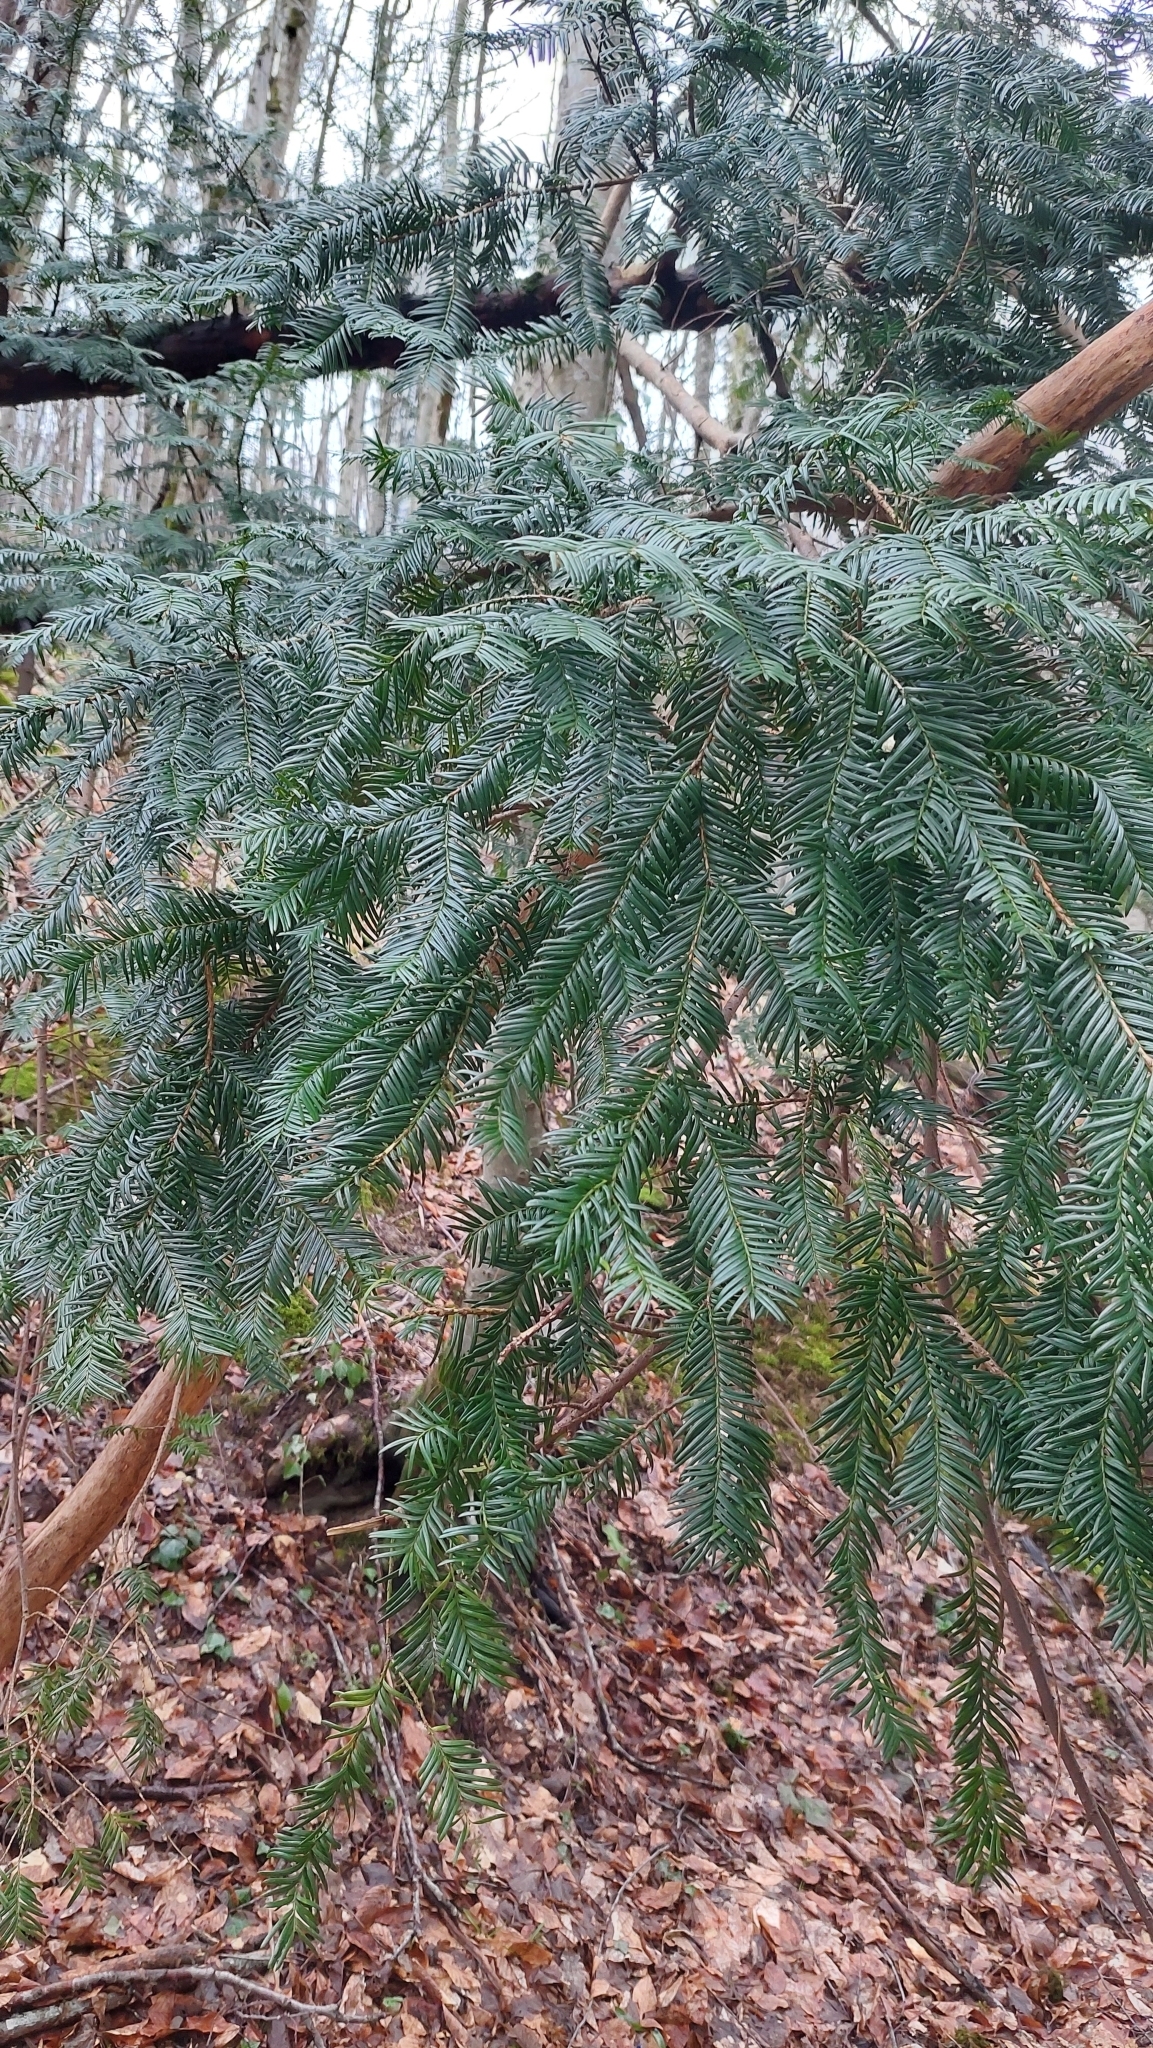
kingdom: Plantae
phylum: Tracheophyta
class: Pinopsida
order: Pinales
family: Taxaceae
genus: Taxus
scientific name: Taxus baccata
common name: Yew
